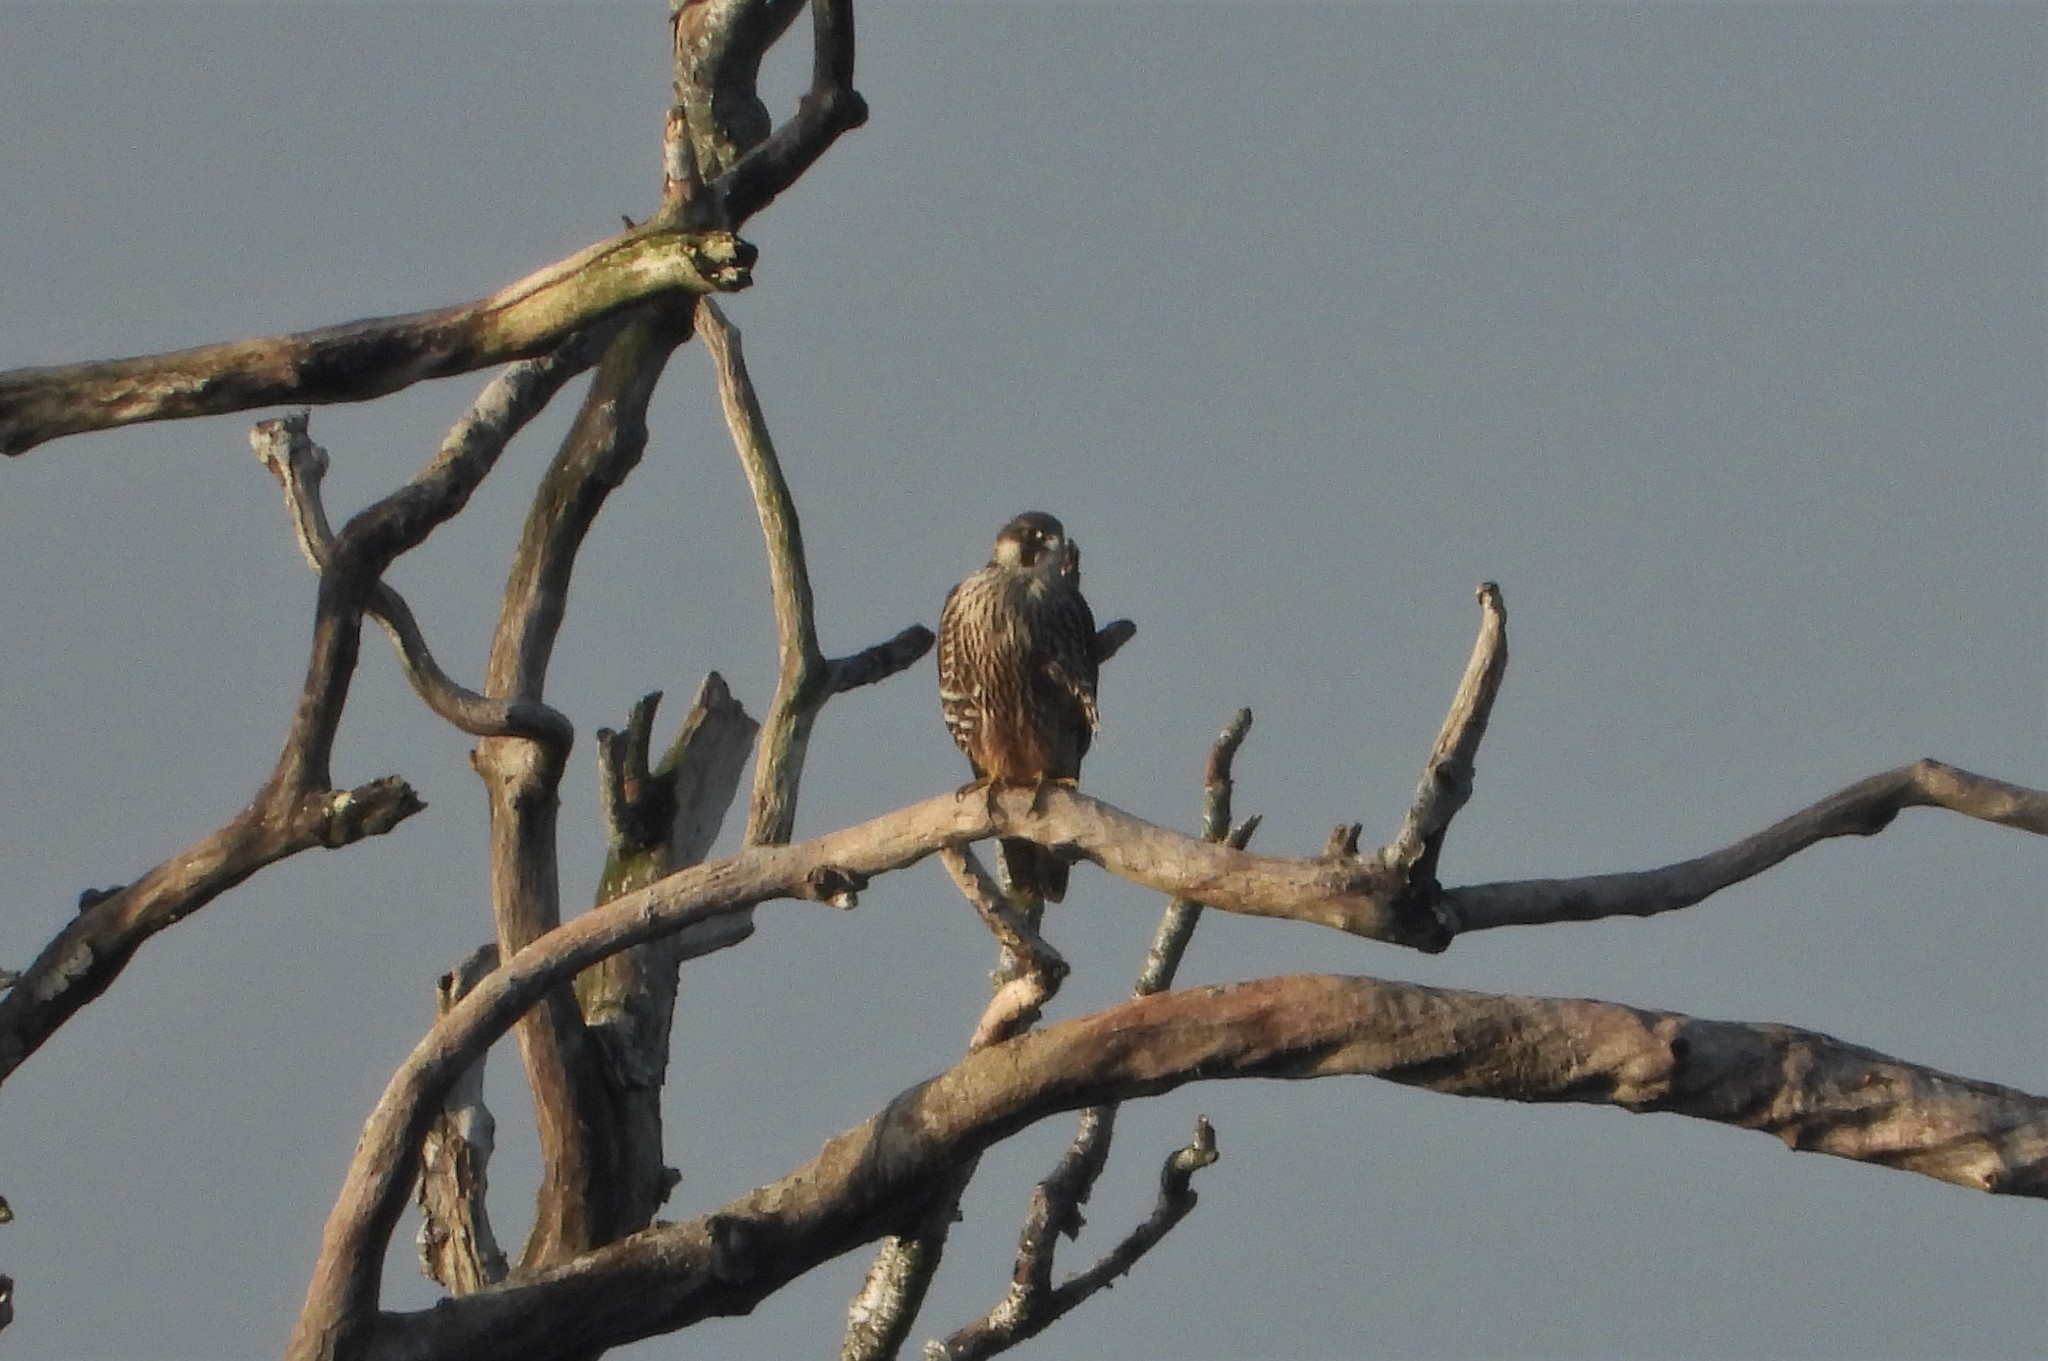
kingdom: Animalia
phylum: Chordata
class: Aves
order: Falconiformes
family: Falconidae
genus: Falco
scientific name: Falco peregrinus
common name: Peregrine falcon
